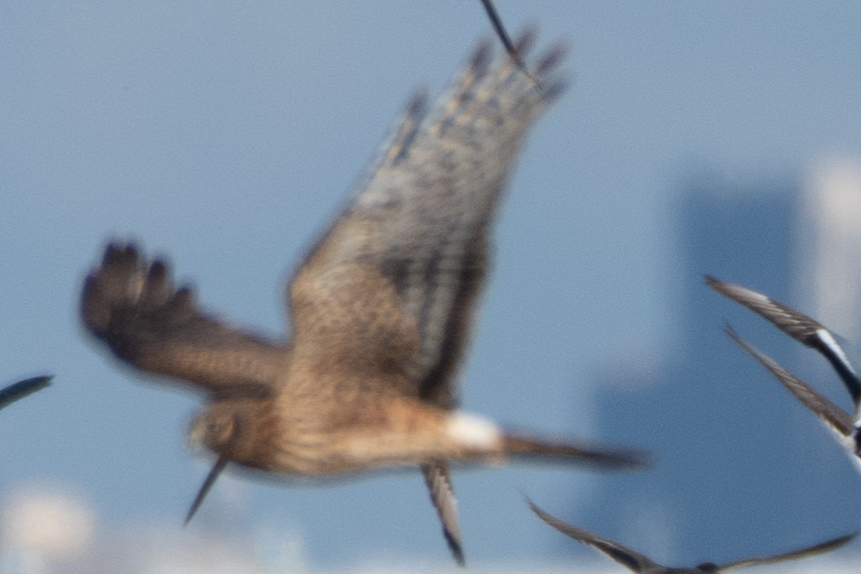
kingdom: Animalia
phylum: Chordata
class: Aves
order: Accipitriformes
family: Accipitridae
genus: Circus
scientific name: Circus cyaneus
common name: Hen harrier
